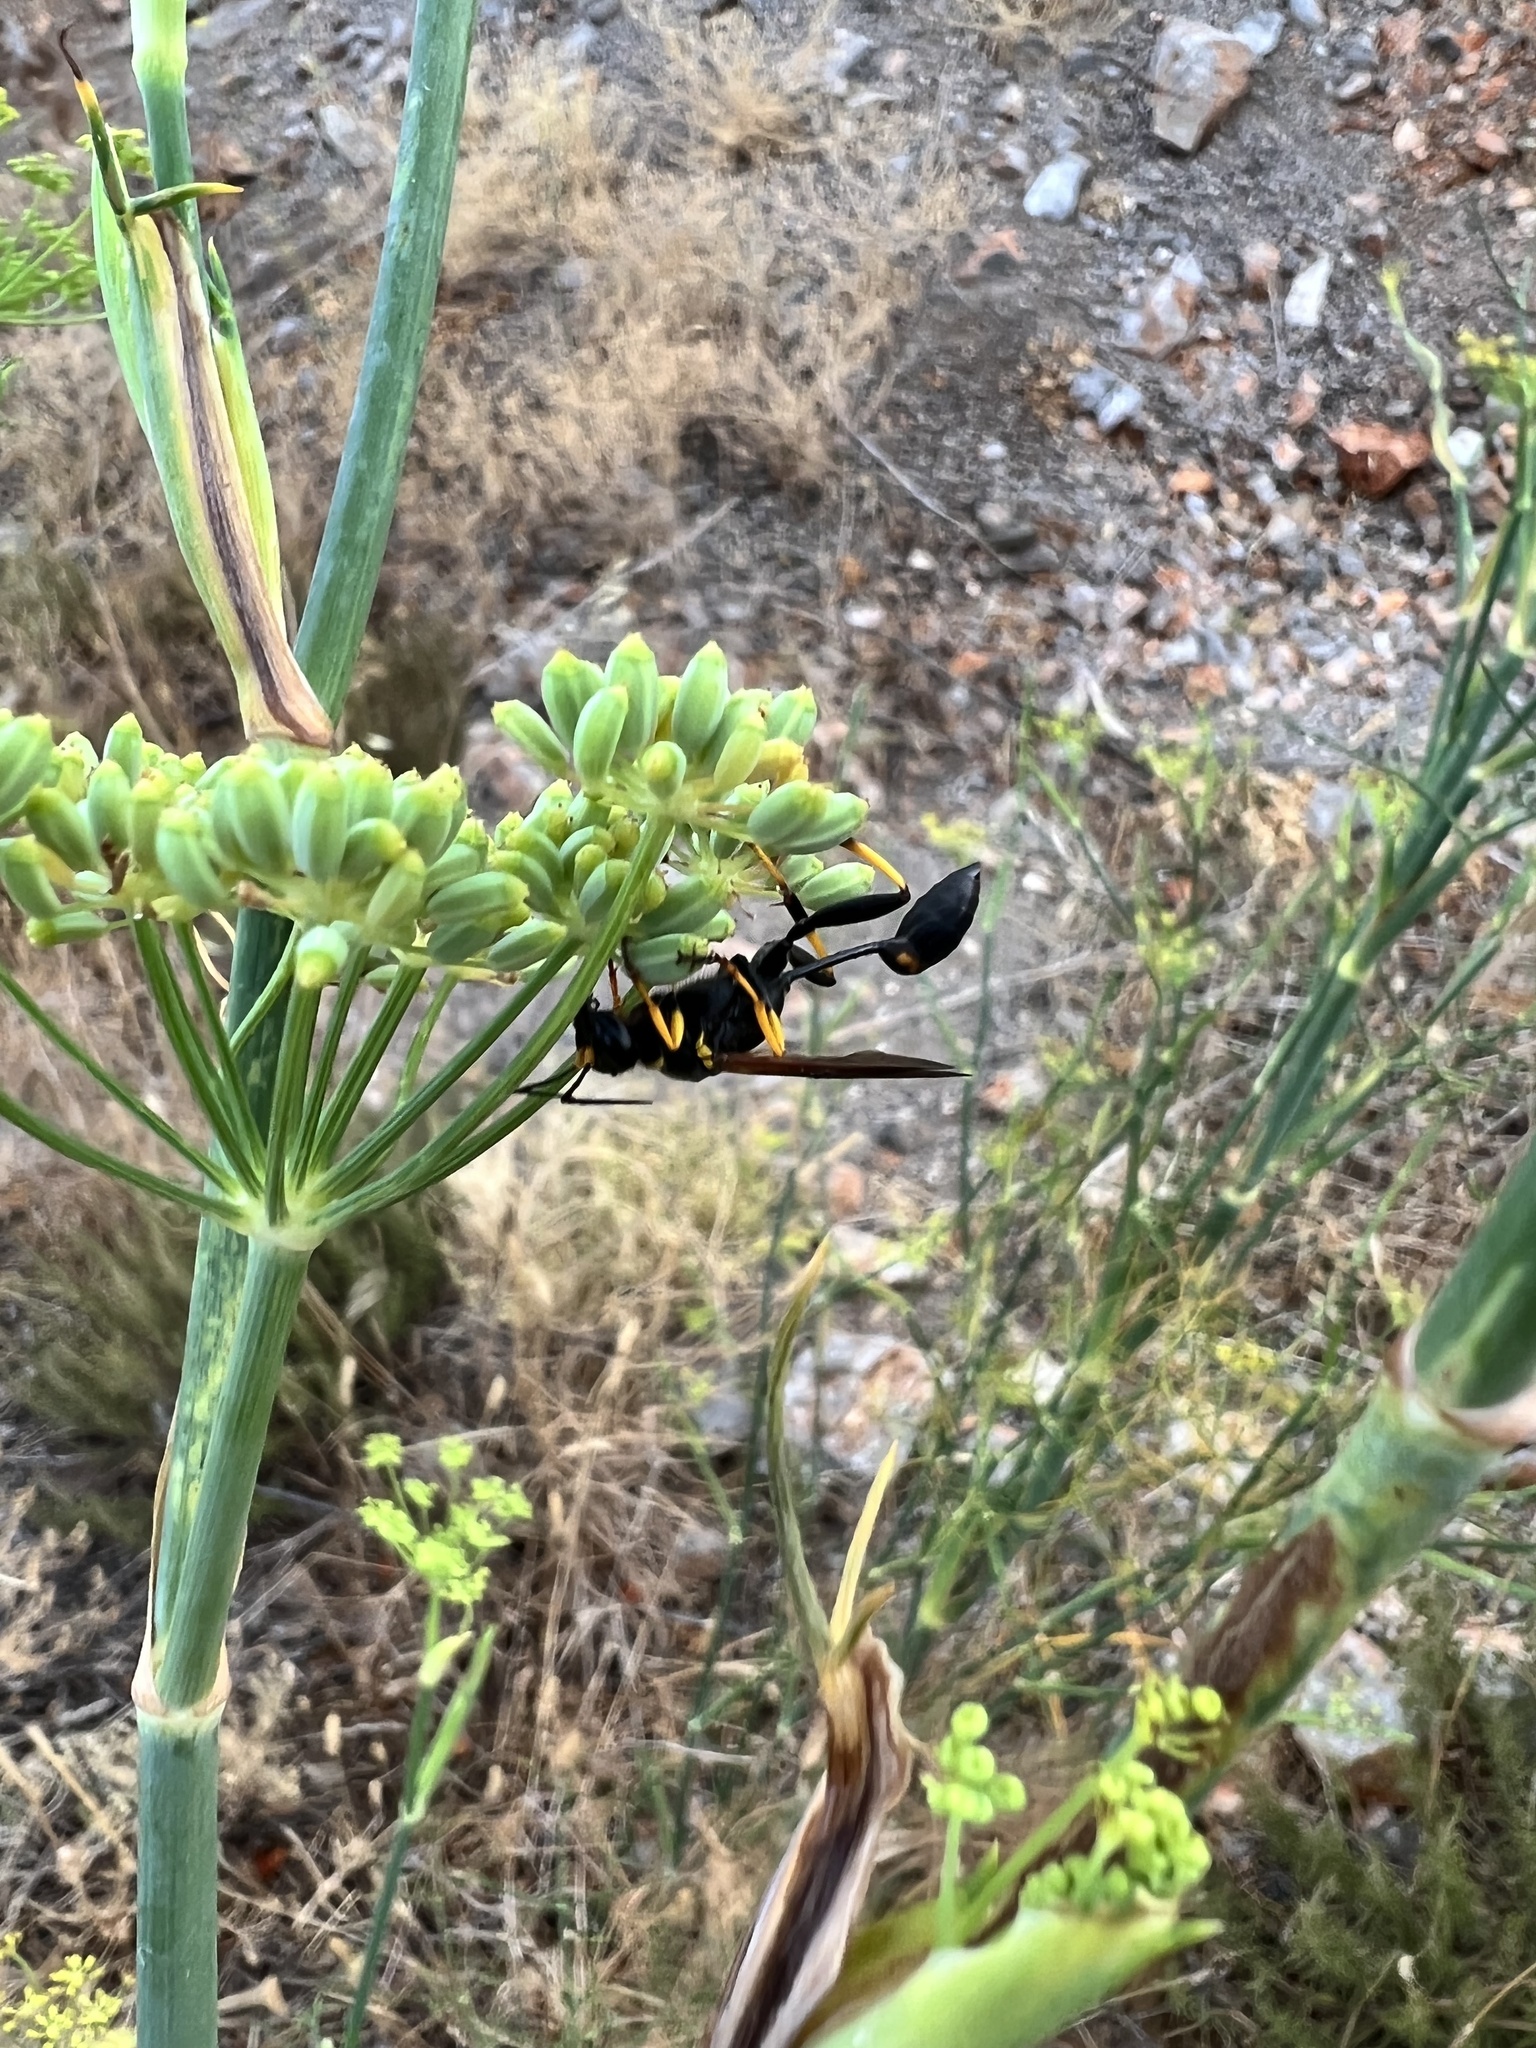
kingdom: Animalia
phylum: Arthropoda
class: Insecta
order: Hymenoptera
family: Sphecidae
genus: Sceliphron
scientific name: Sceliphron caementarium
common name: Mud dauber
